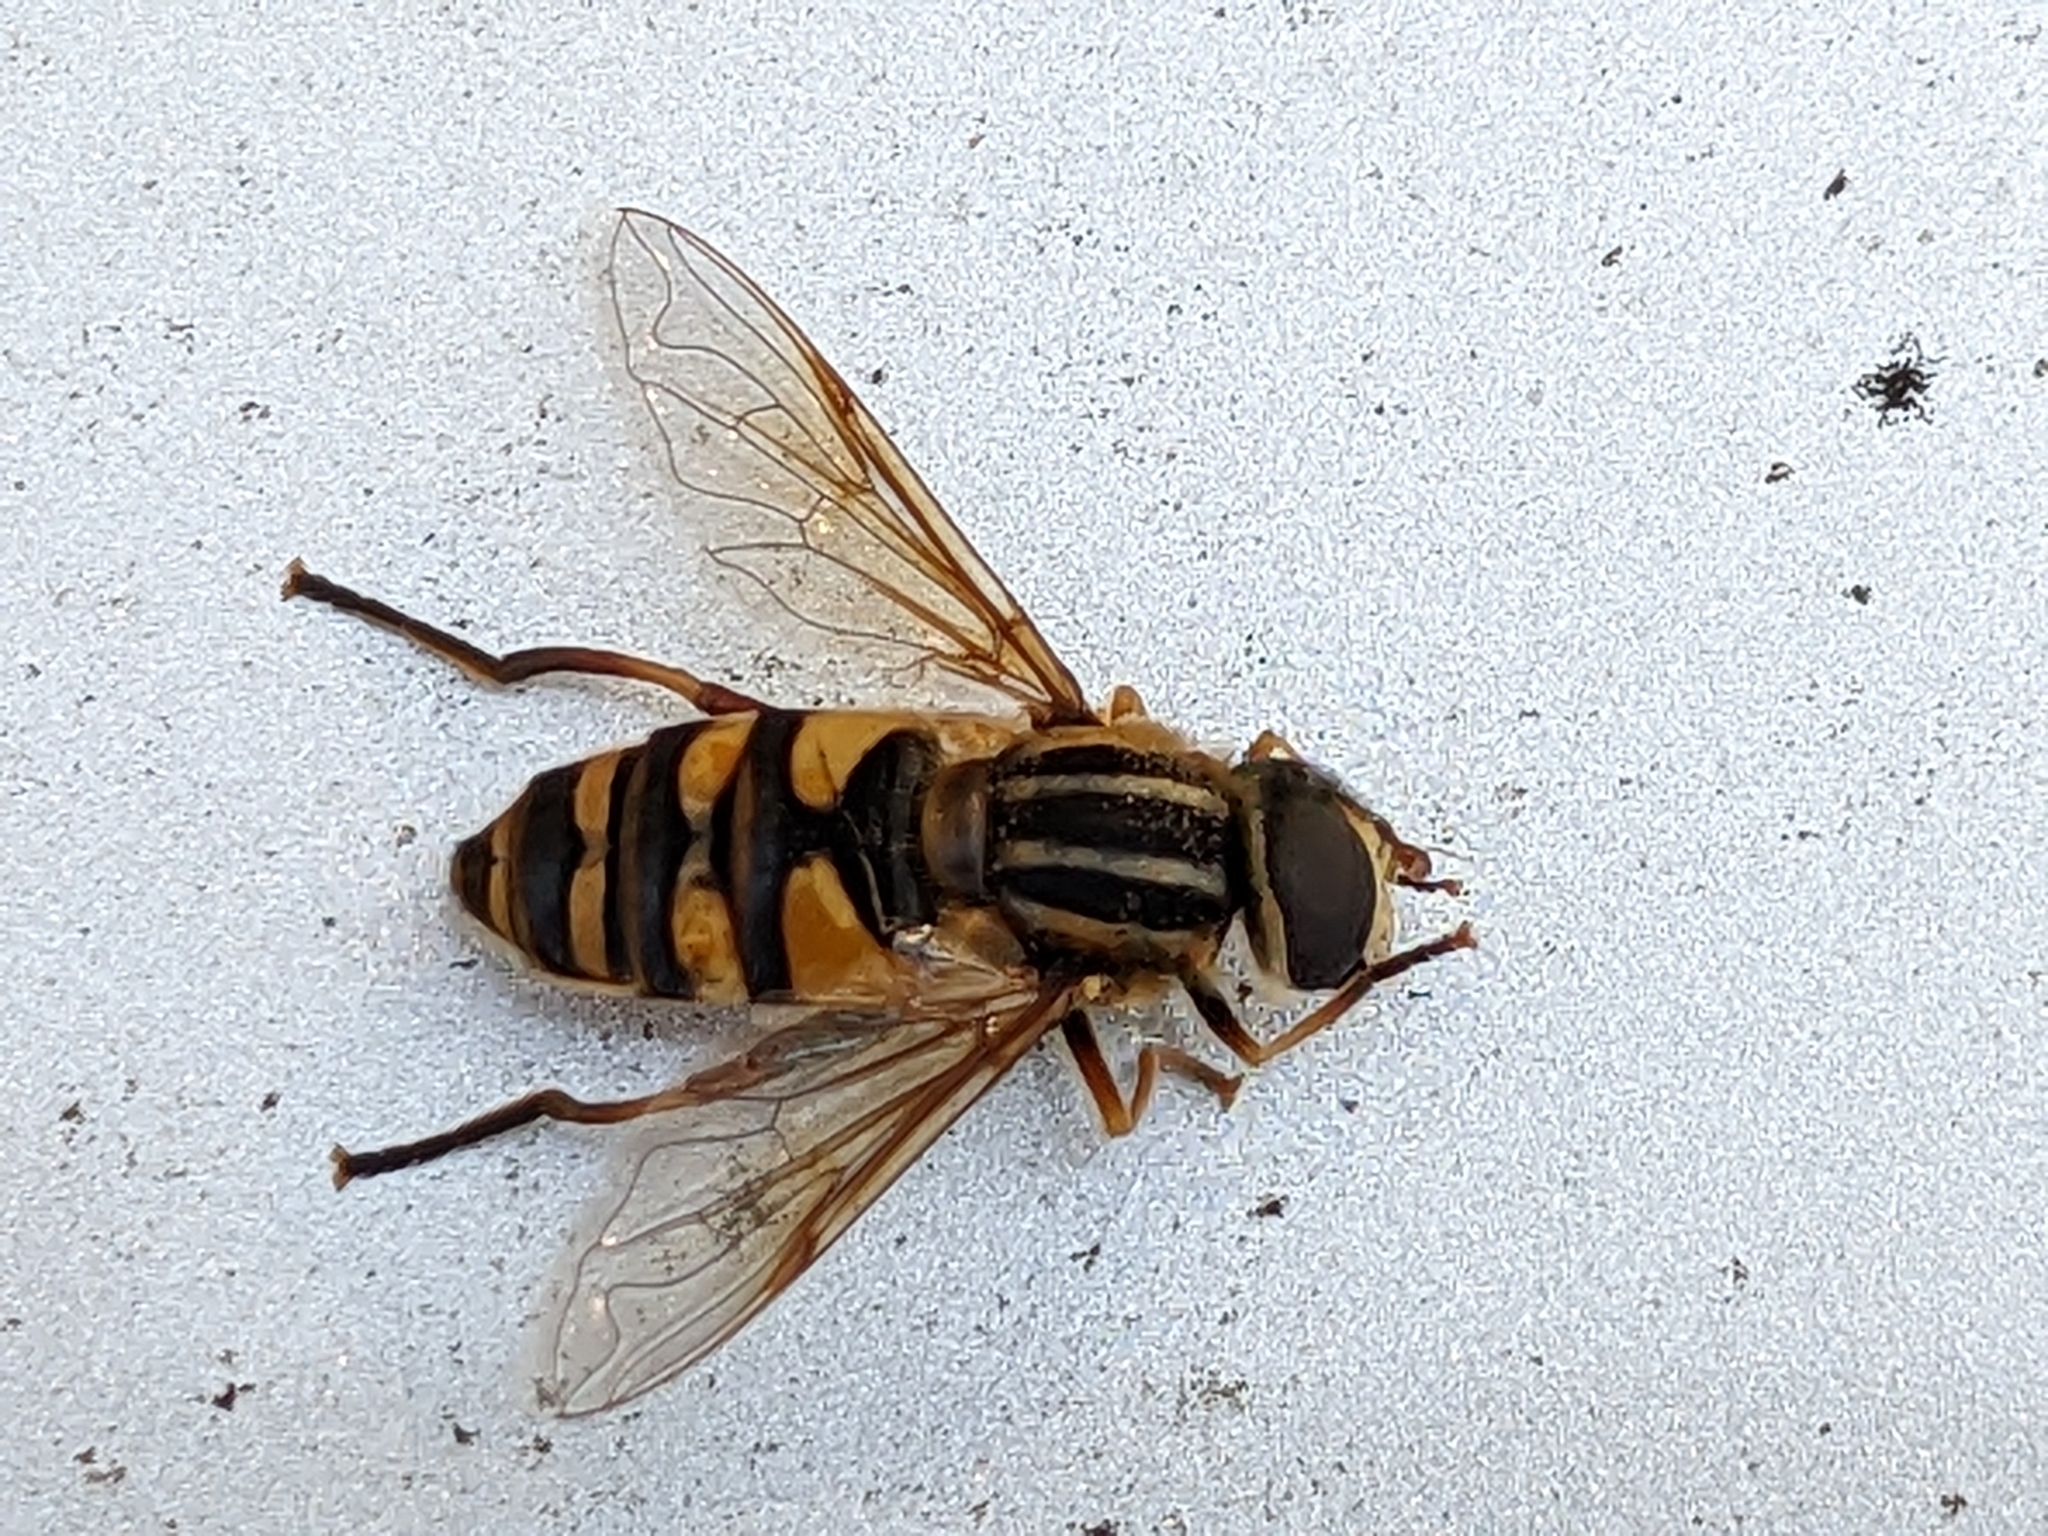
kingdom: Animalia
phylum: Arthropoda
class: Insecta
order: Diptera
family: Syrphidae
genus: Helophilus
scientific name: Helophilus fasciatus
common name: Narrow-headed marsh fly
